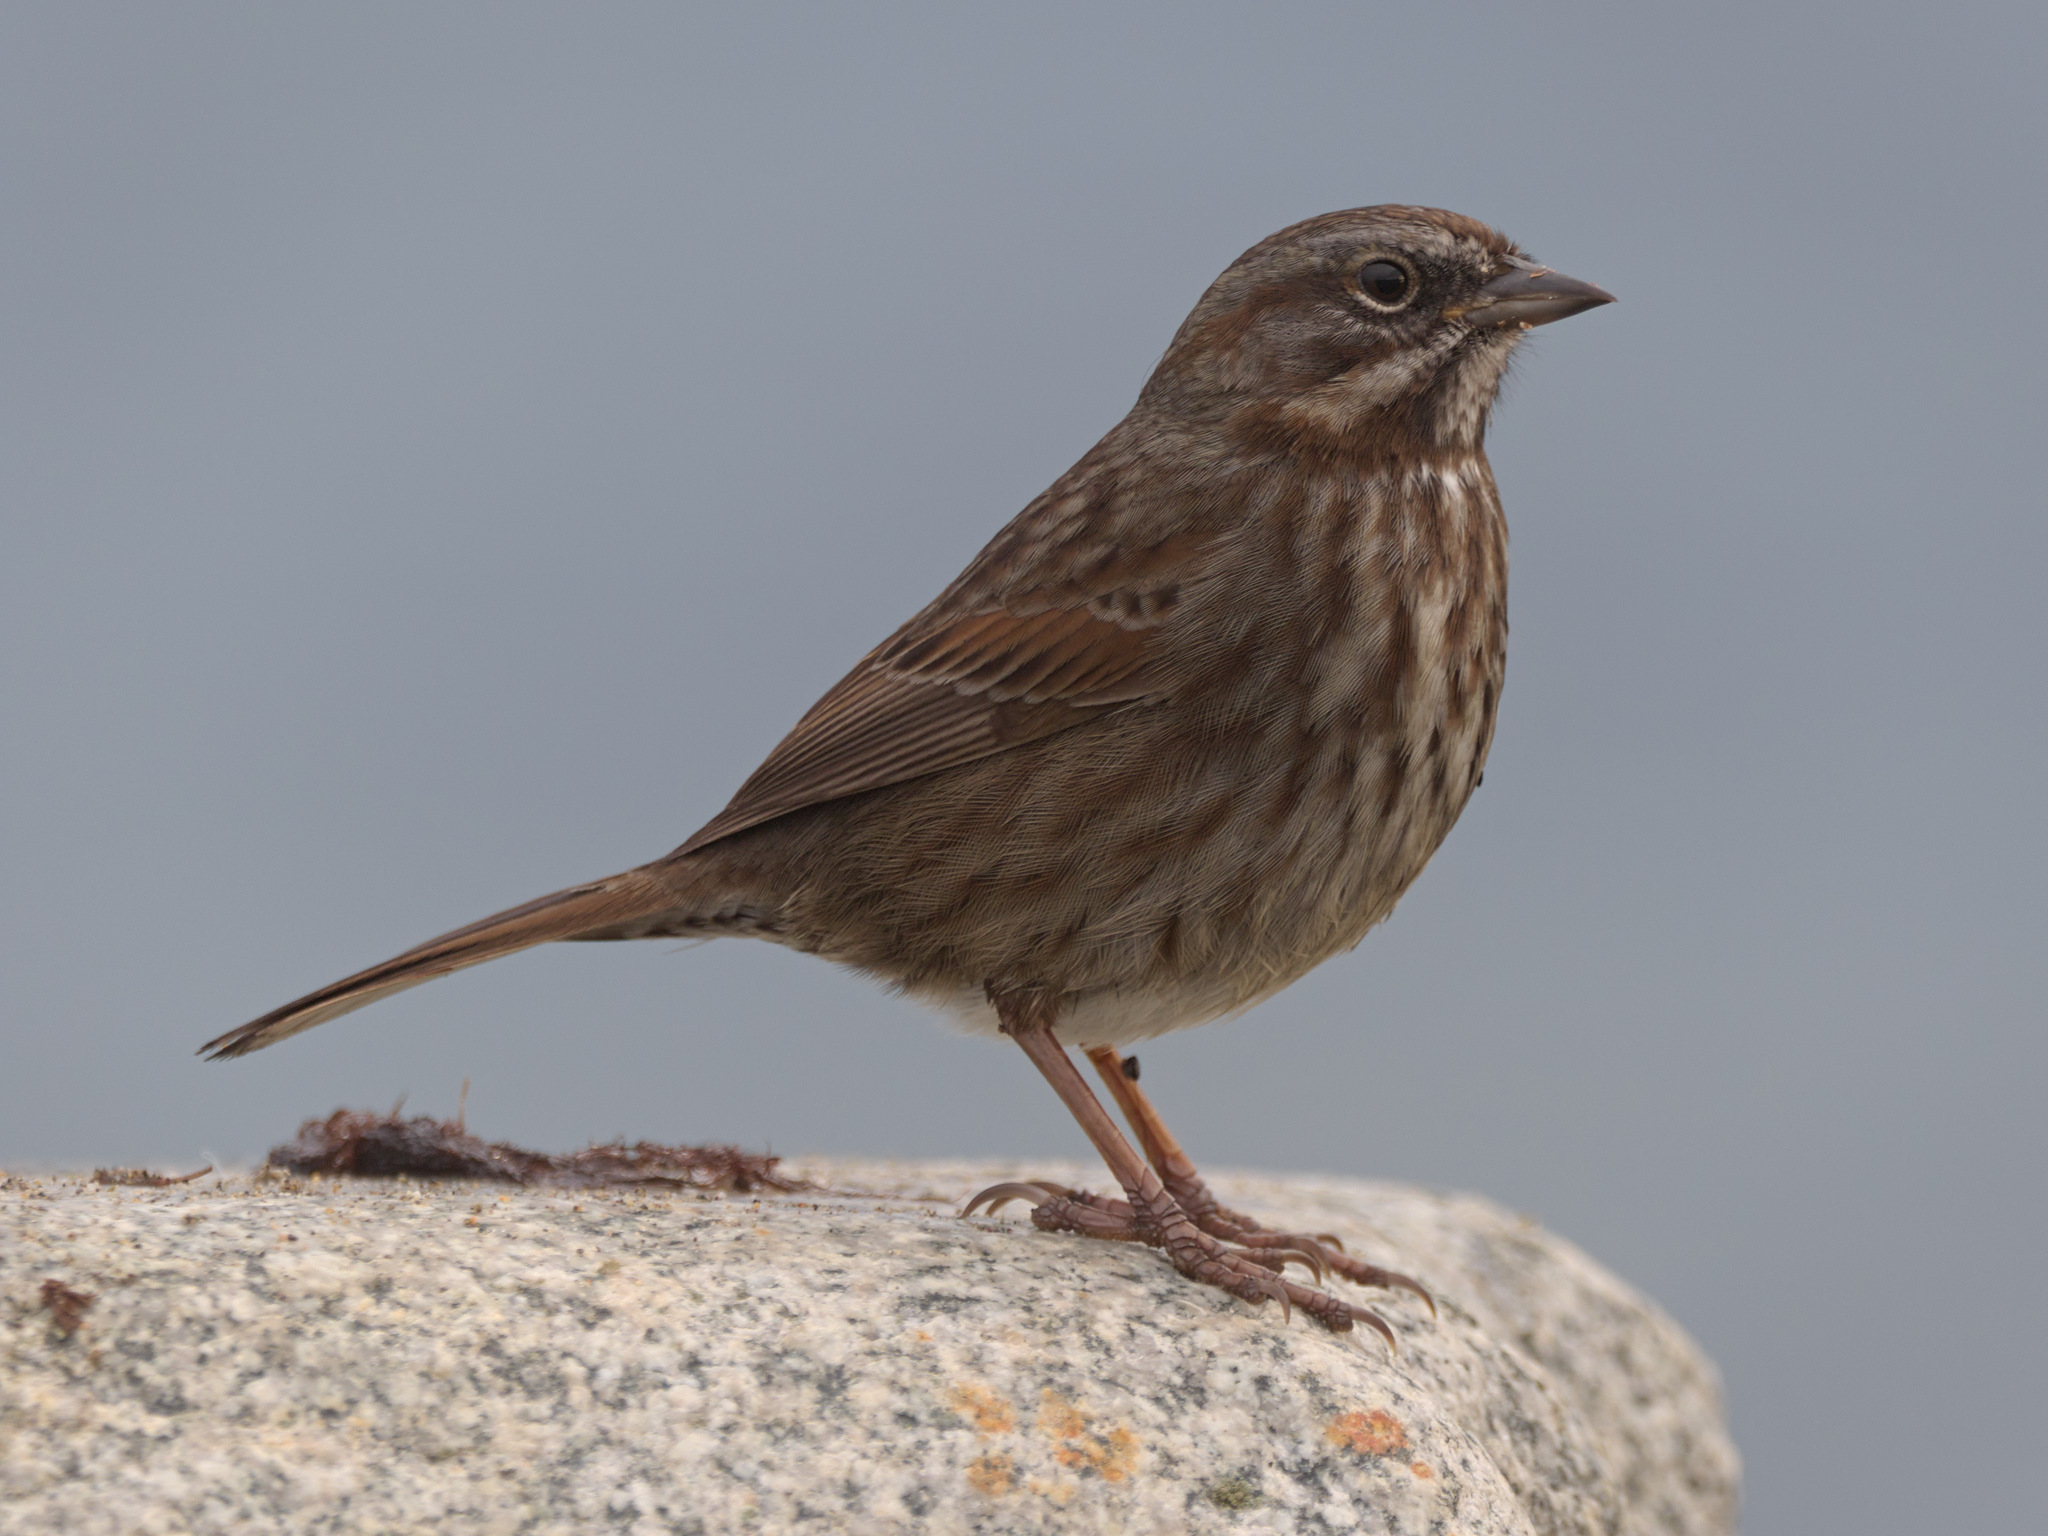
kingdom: Animalia
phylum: Chordata
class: Aves
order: Passeriformes
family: Passerellidae
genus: Melospiza
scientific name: Melospiza melodia
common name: Song sparrow
